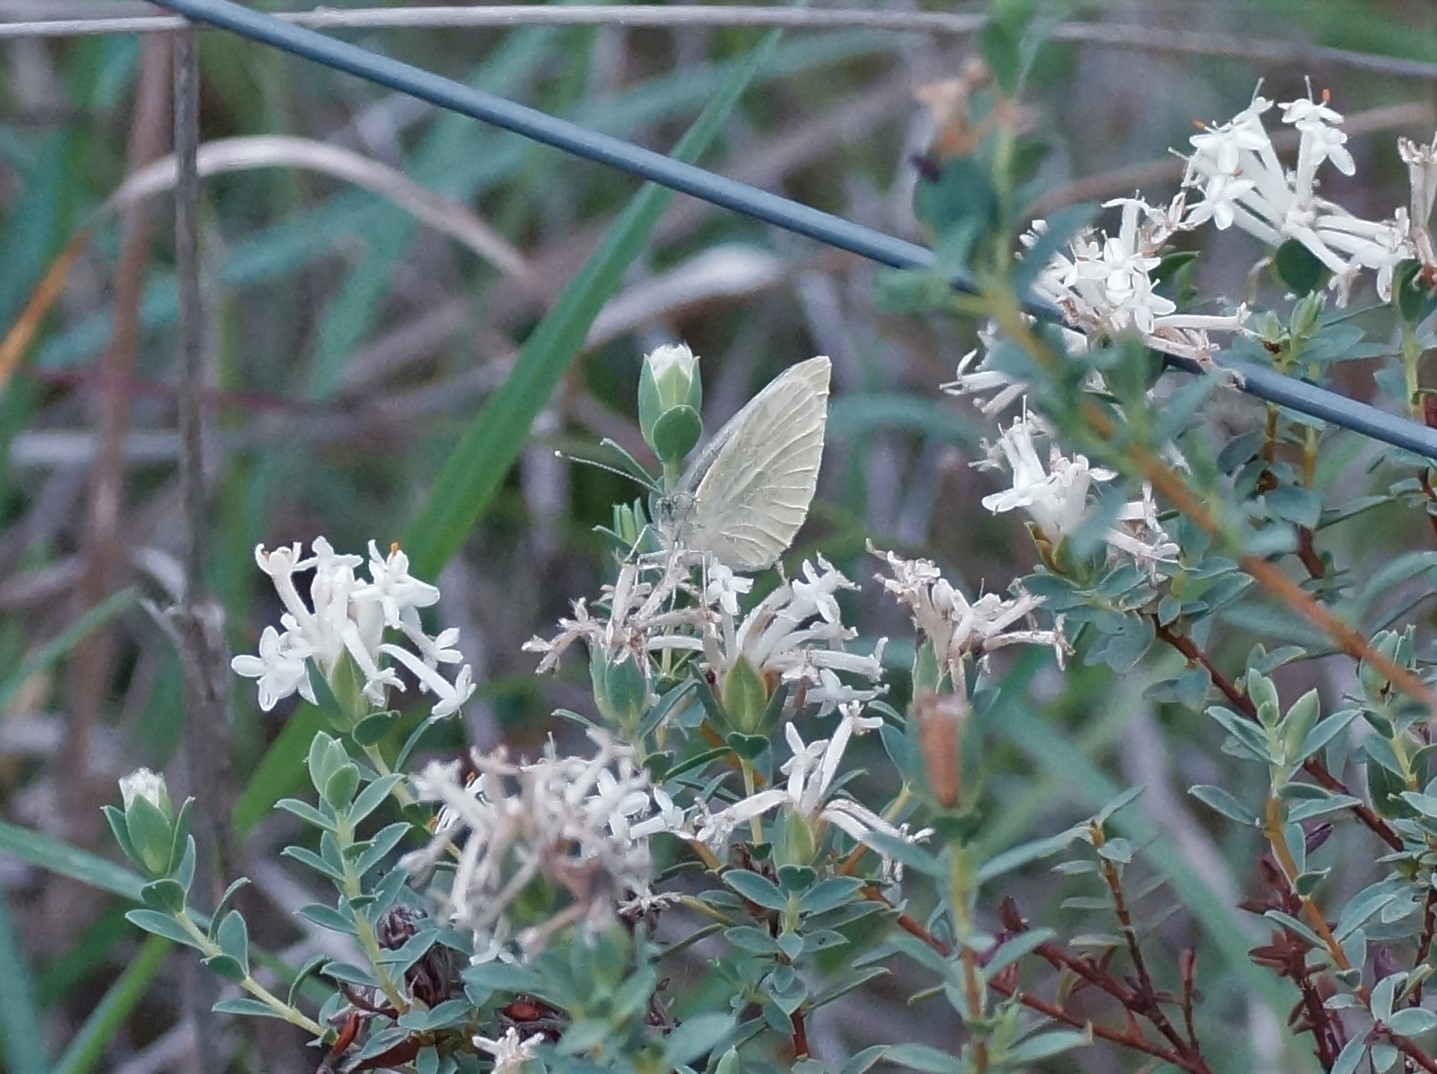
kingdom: Animalia
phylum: Arthropoda
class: Insecta
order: Lepidoptera
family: Pieridae
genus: Pieris
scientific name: Pieris rapae
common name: Small white
